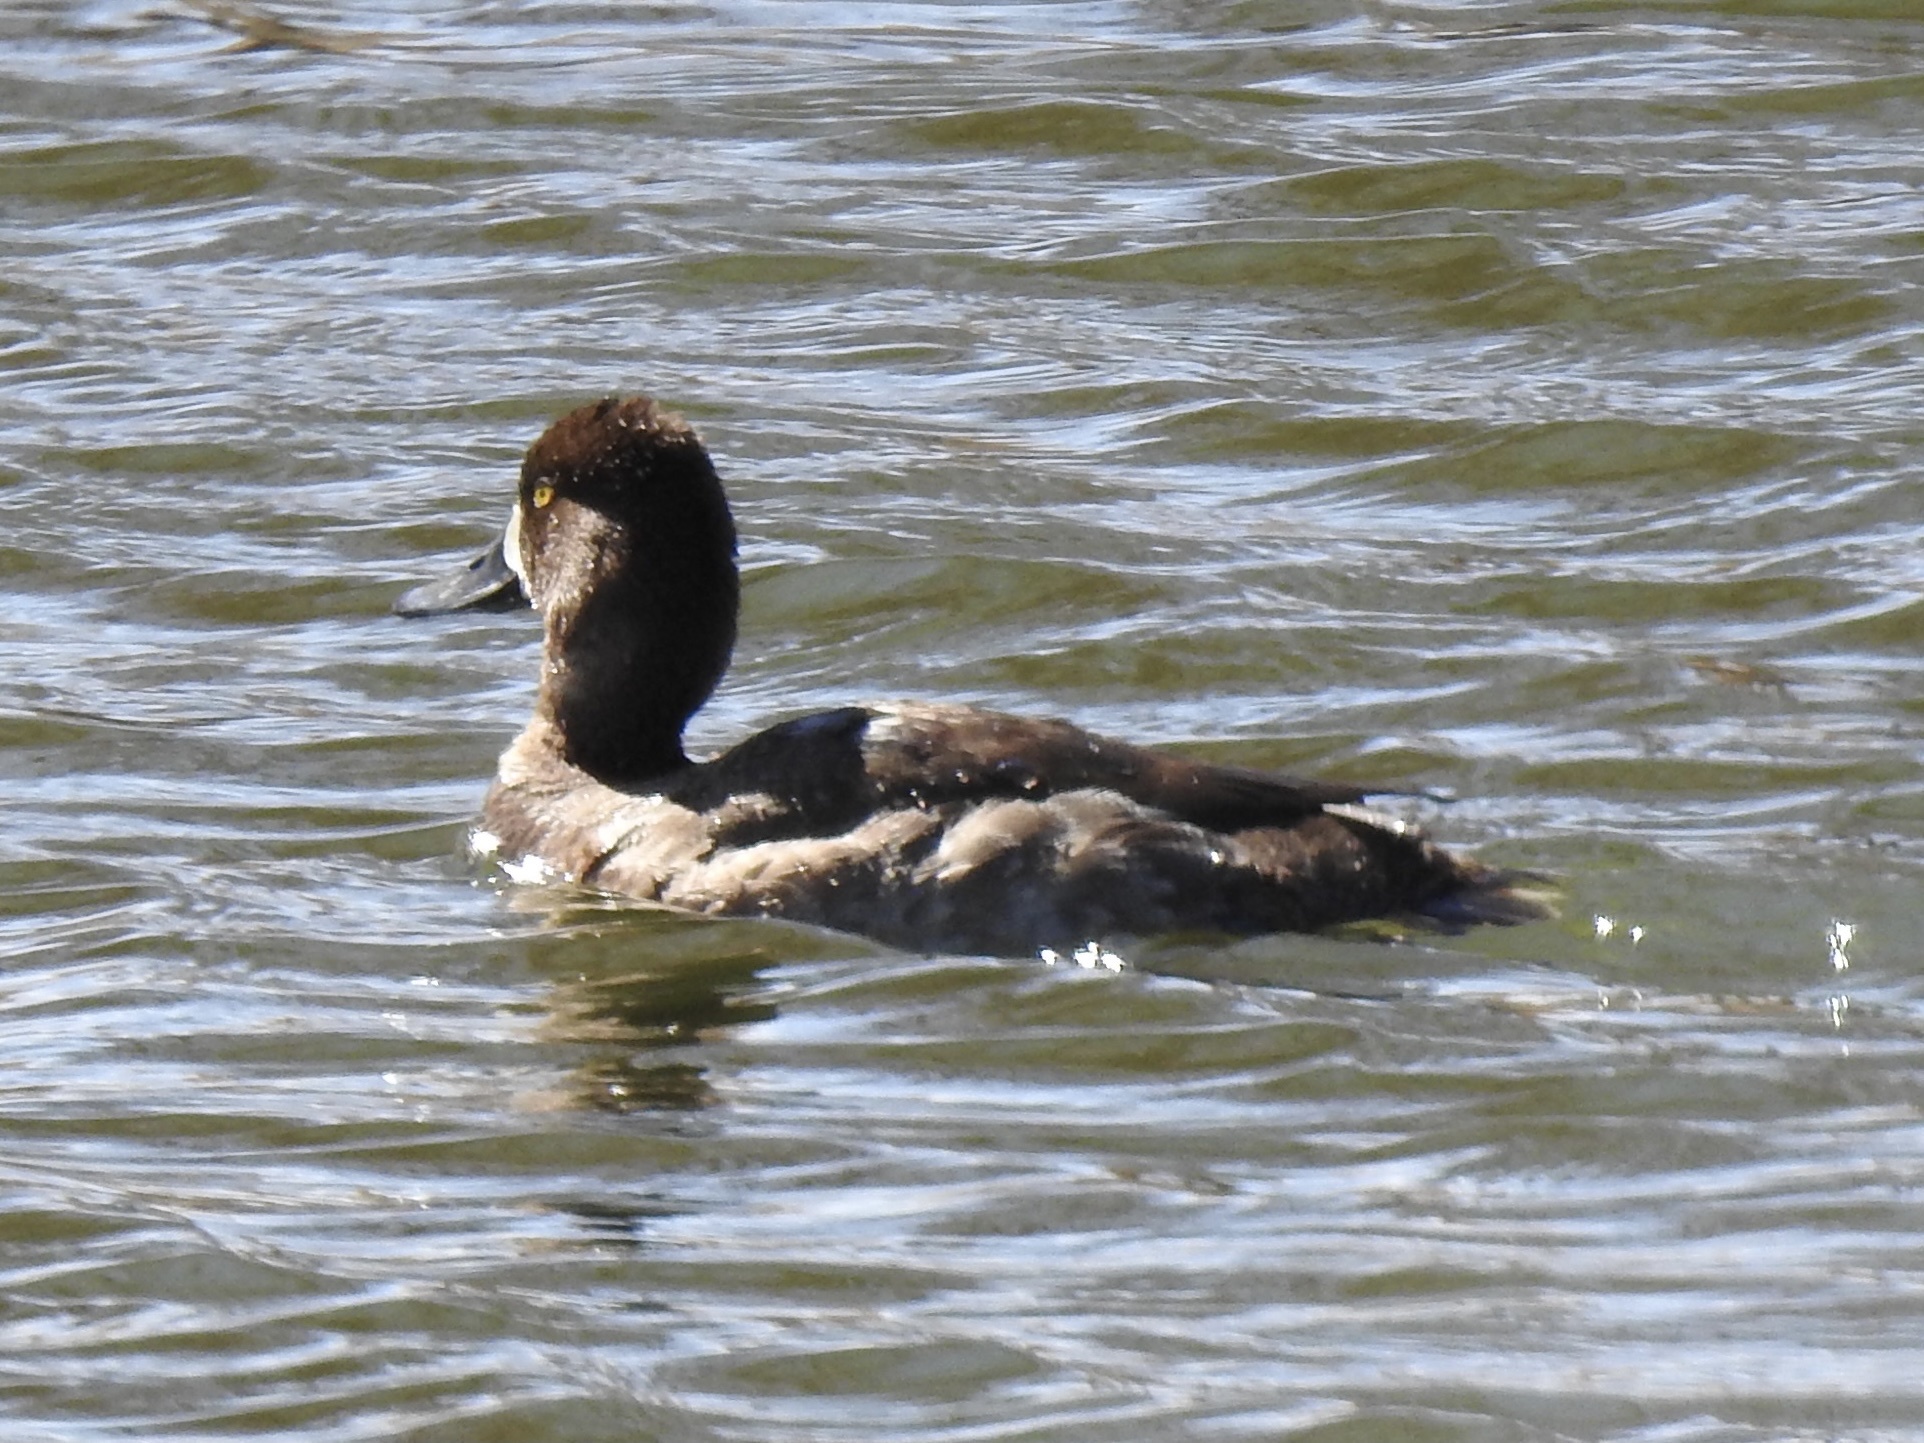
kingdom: Animalia
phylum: Chordata
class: Aves
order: Anseriformes
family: Anatidae
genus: Aythya
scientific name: Aythya affinis
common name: Lesser scaup
